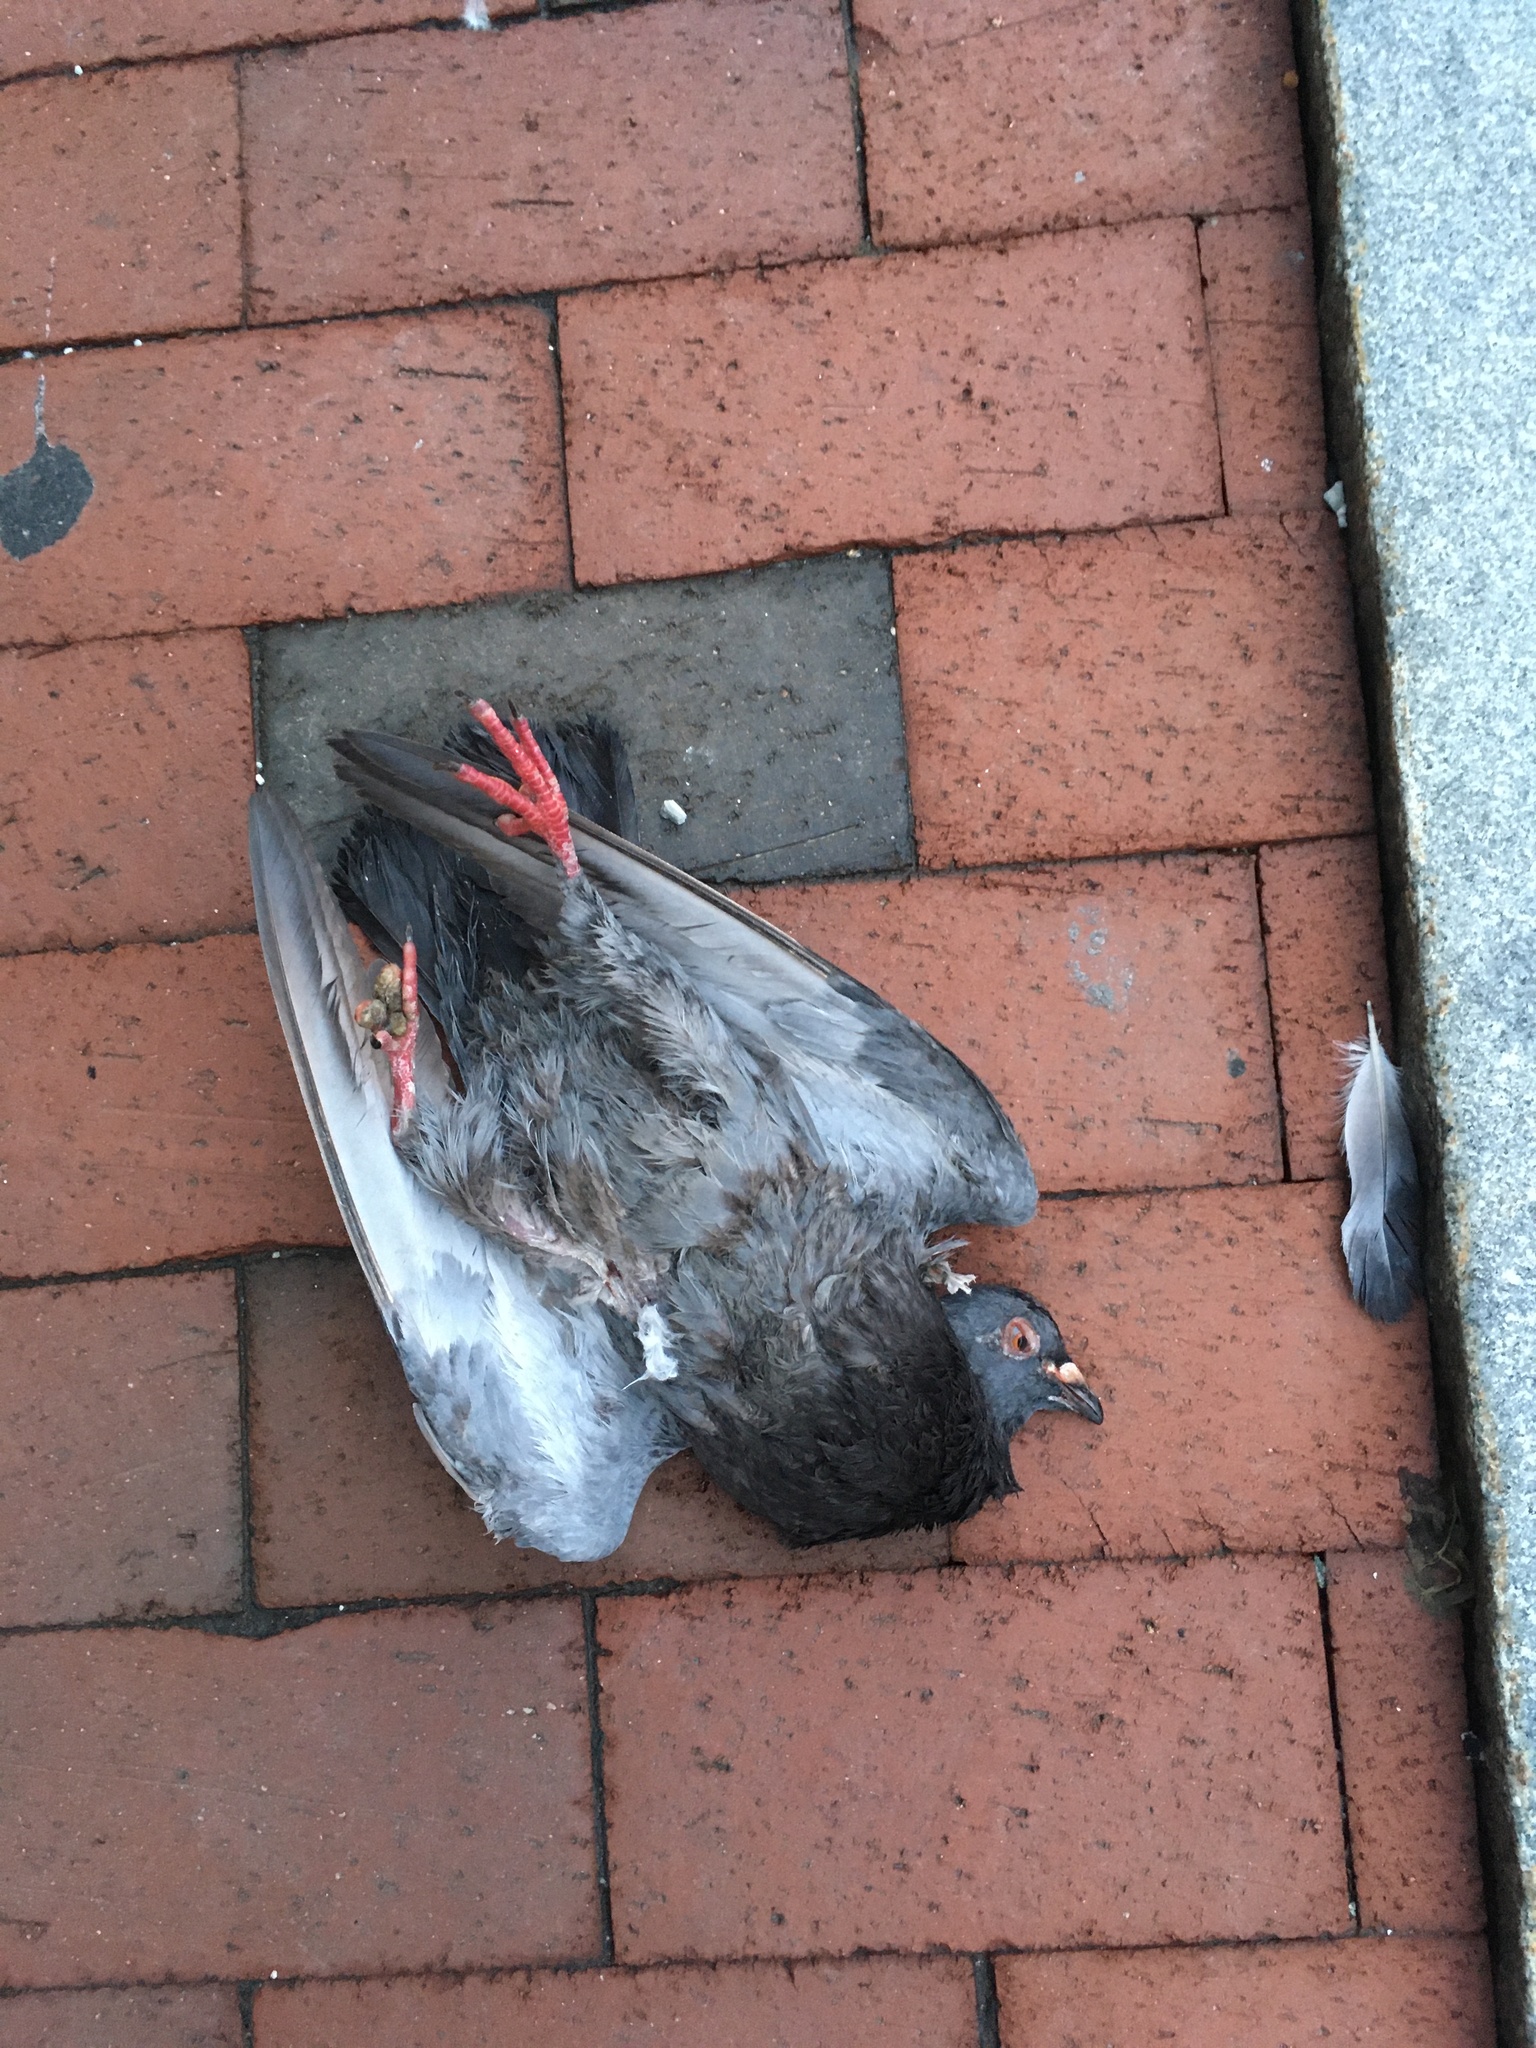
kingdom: Animalia
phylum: Chordata
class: Aves
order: Columbiformes
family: Columbidae
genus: Columba
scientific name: Columba livia
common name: Rock pigeon
